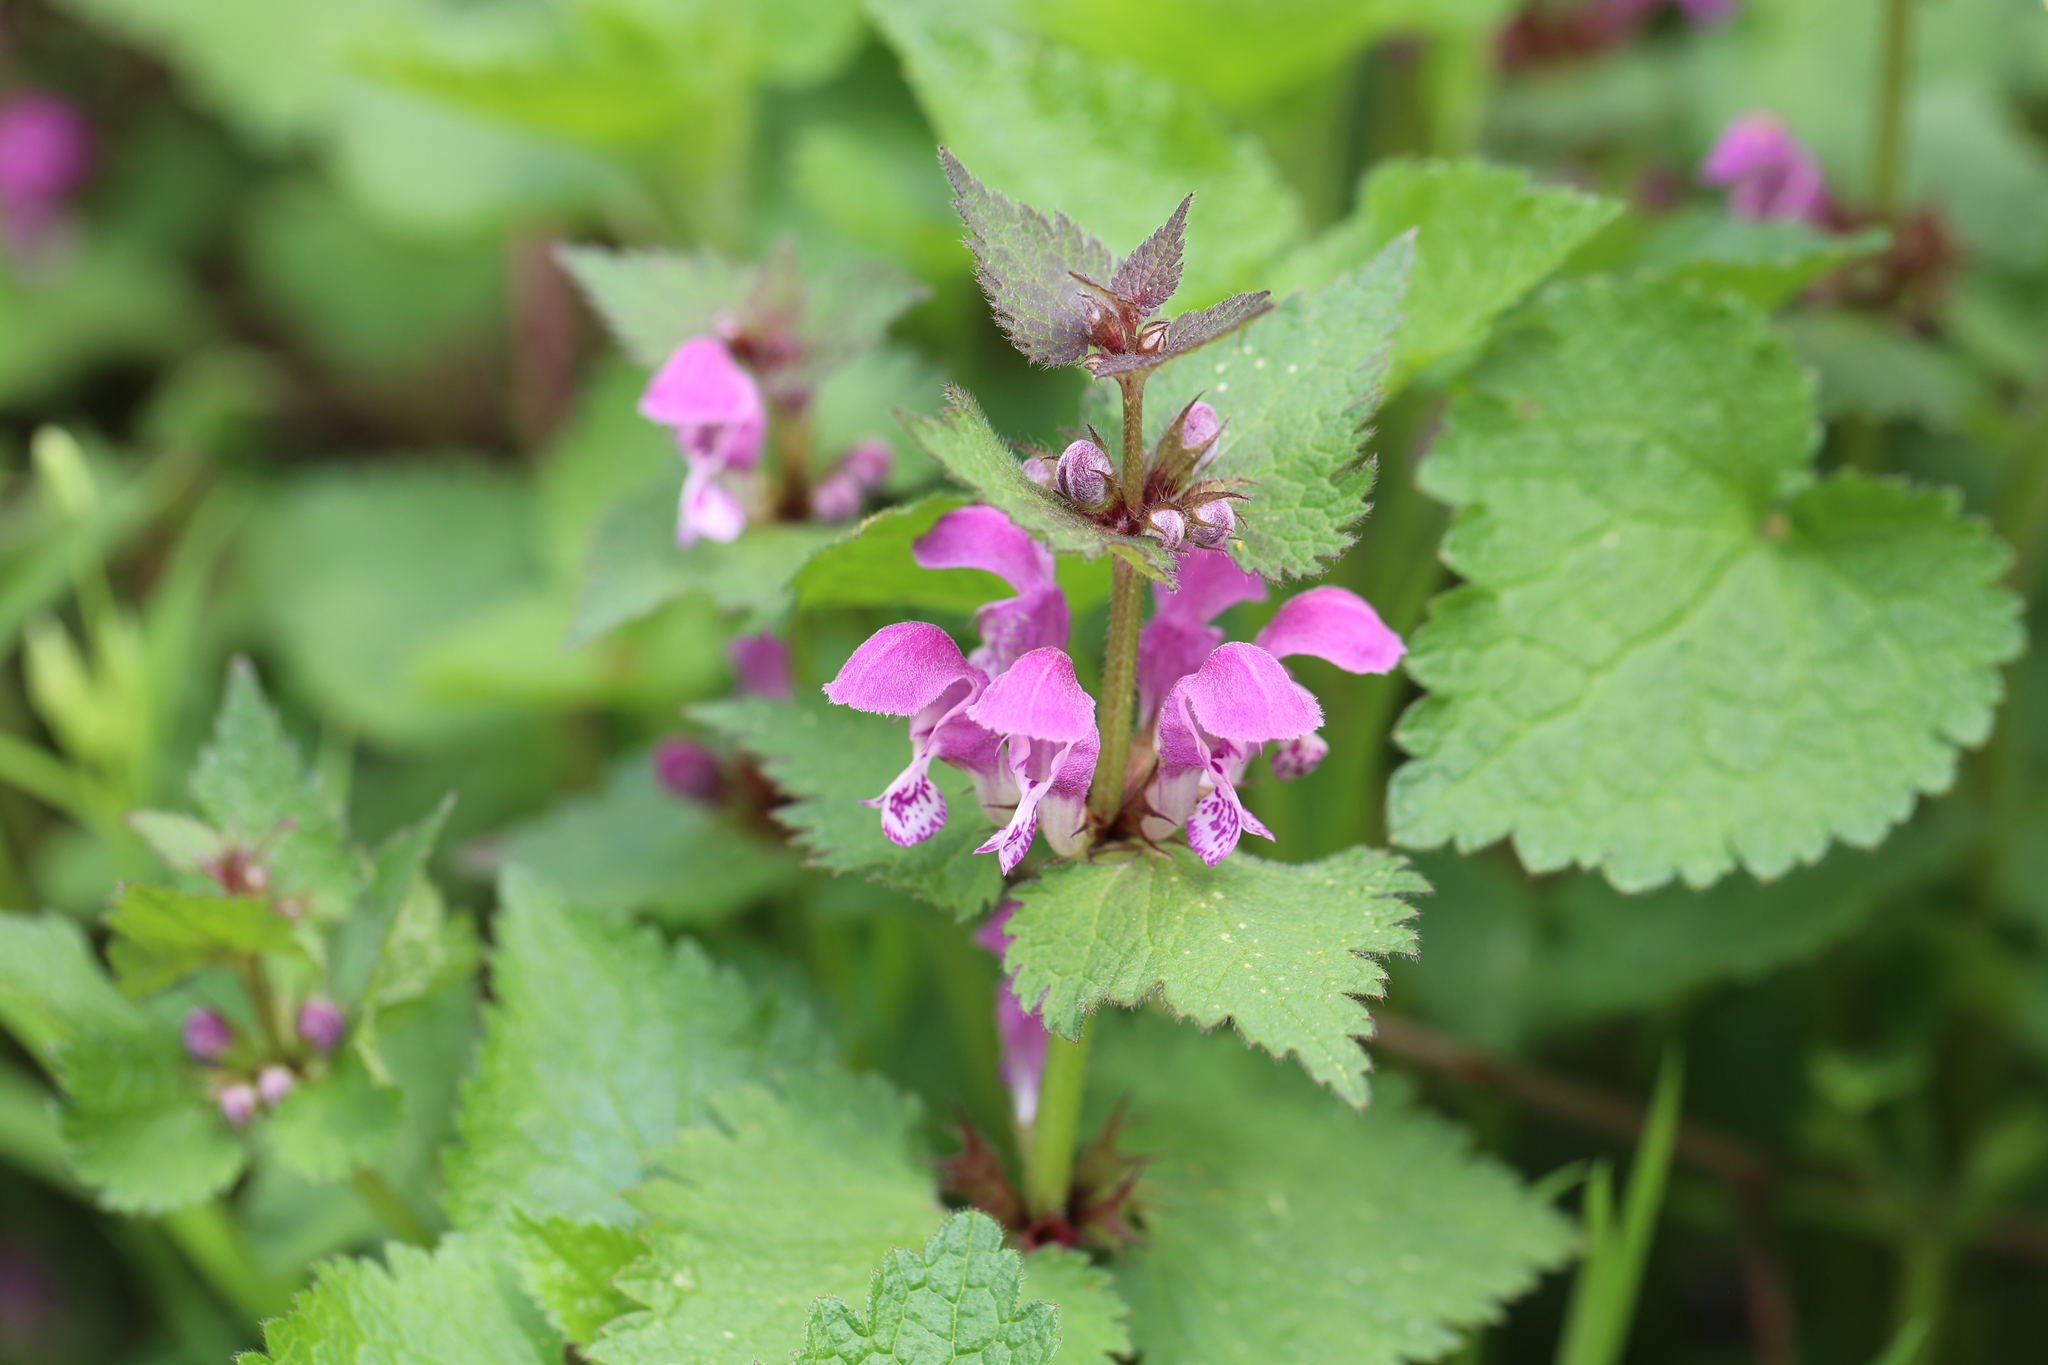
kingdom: Plantae
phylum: Tracheophyta
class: Magnoliopsida
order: Lamiales
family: Lamiaceae
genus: Lamium
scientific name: Lamium maculatum
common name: Spotted dead-nettle
